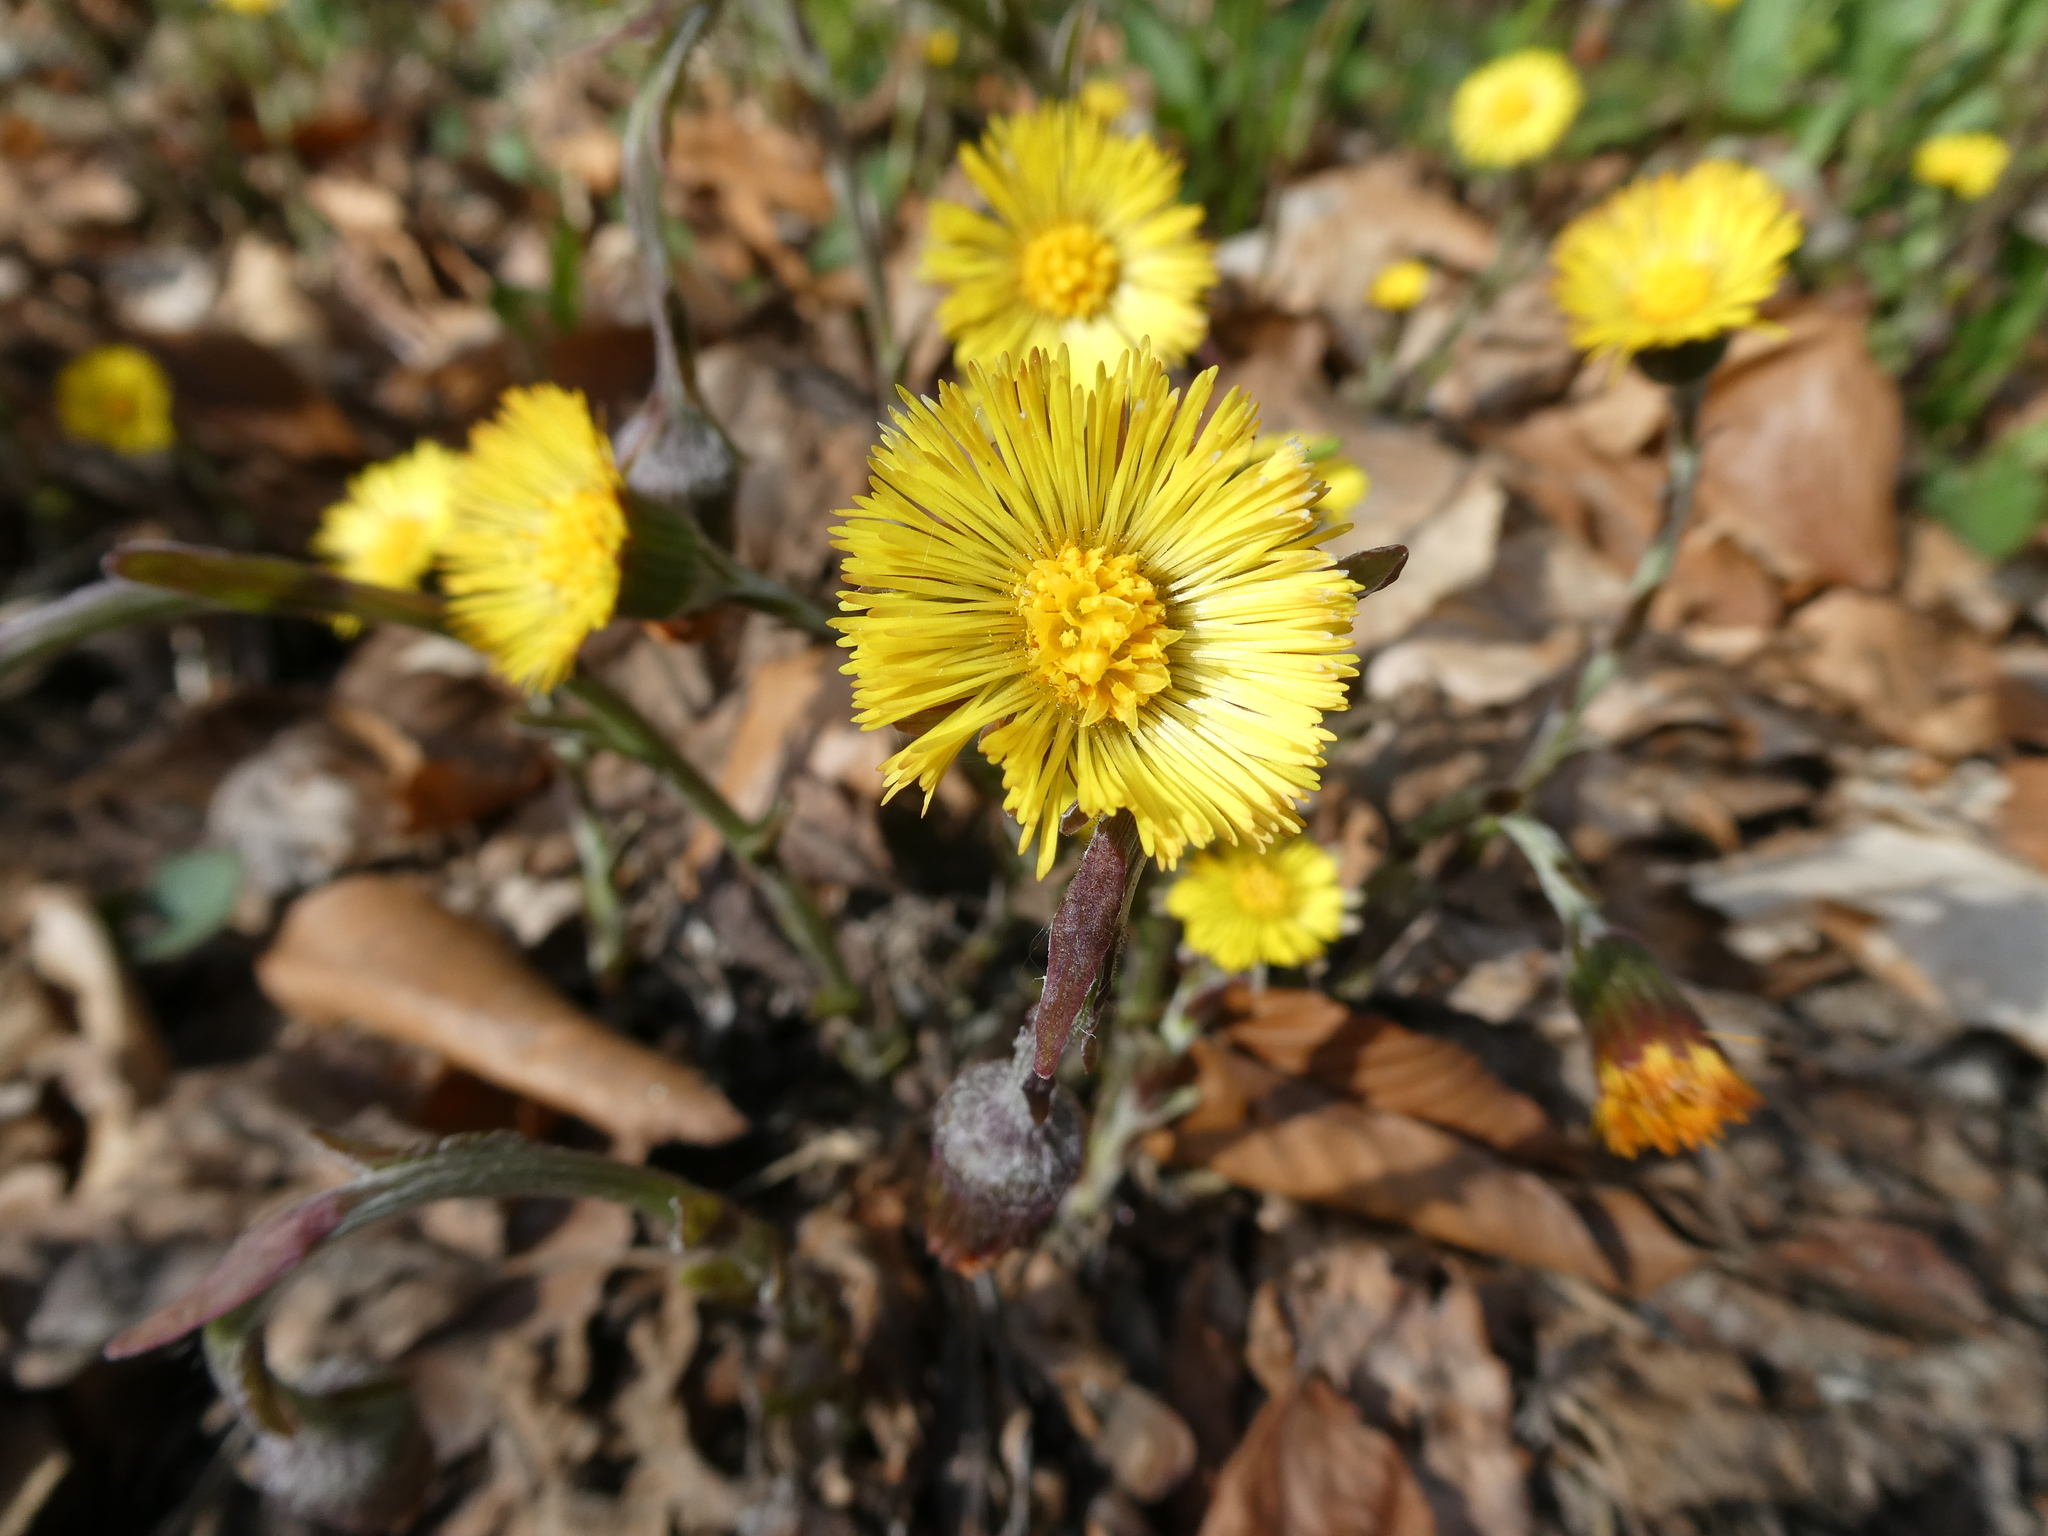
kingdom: Plantae
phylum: Tracheophyta
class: Magnoliopsida
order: Asterales
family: Asteraceae
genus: Tussilago
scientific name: Tussilago farfara
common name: Coltsfoot
